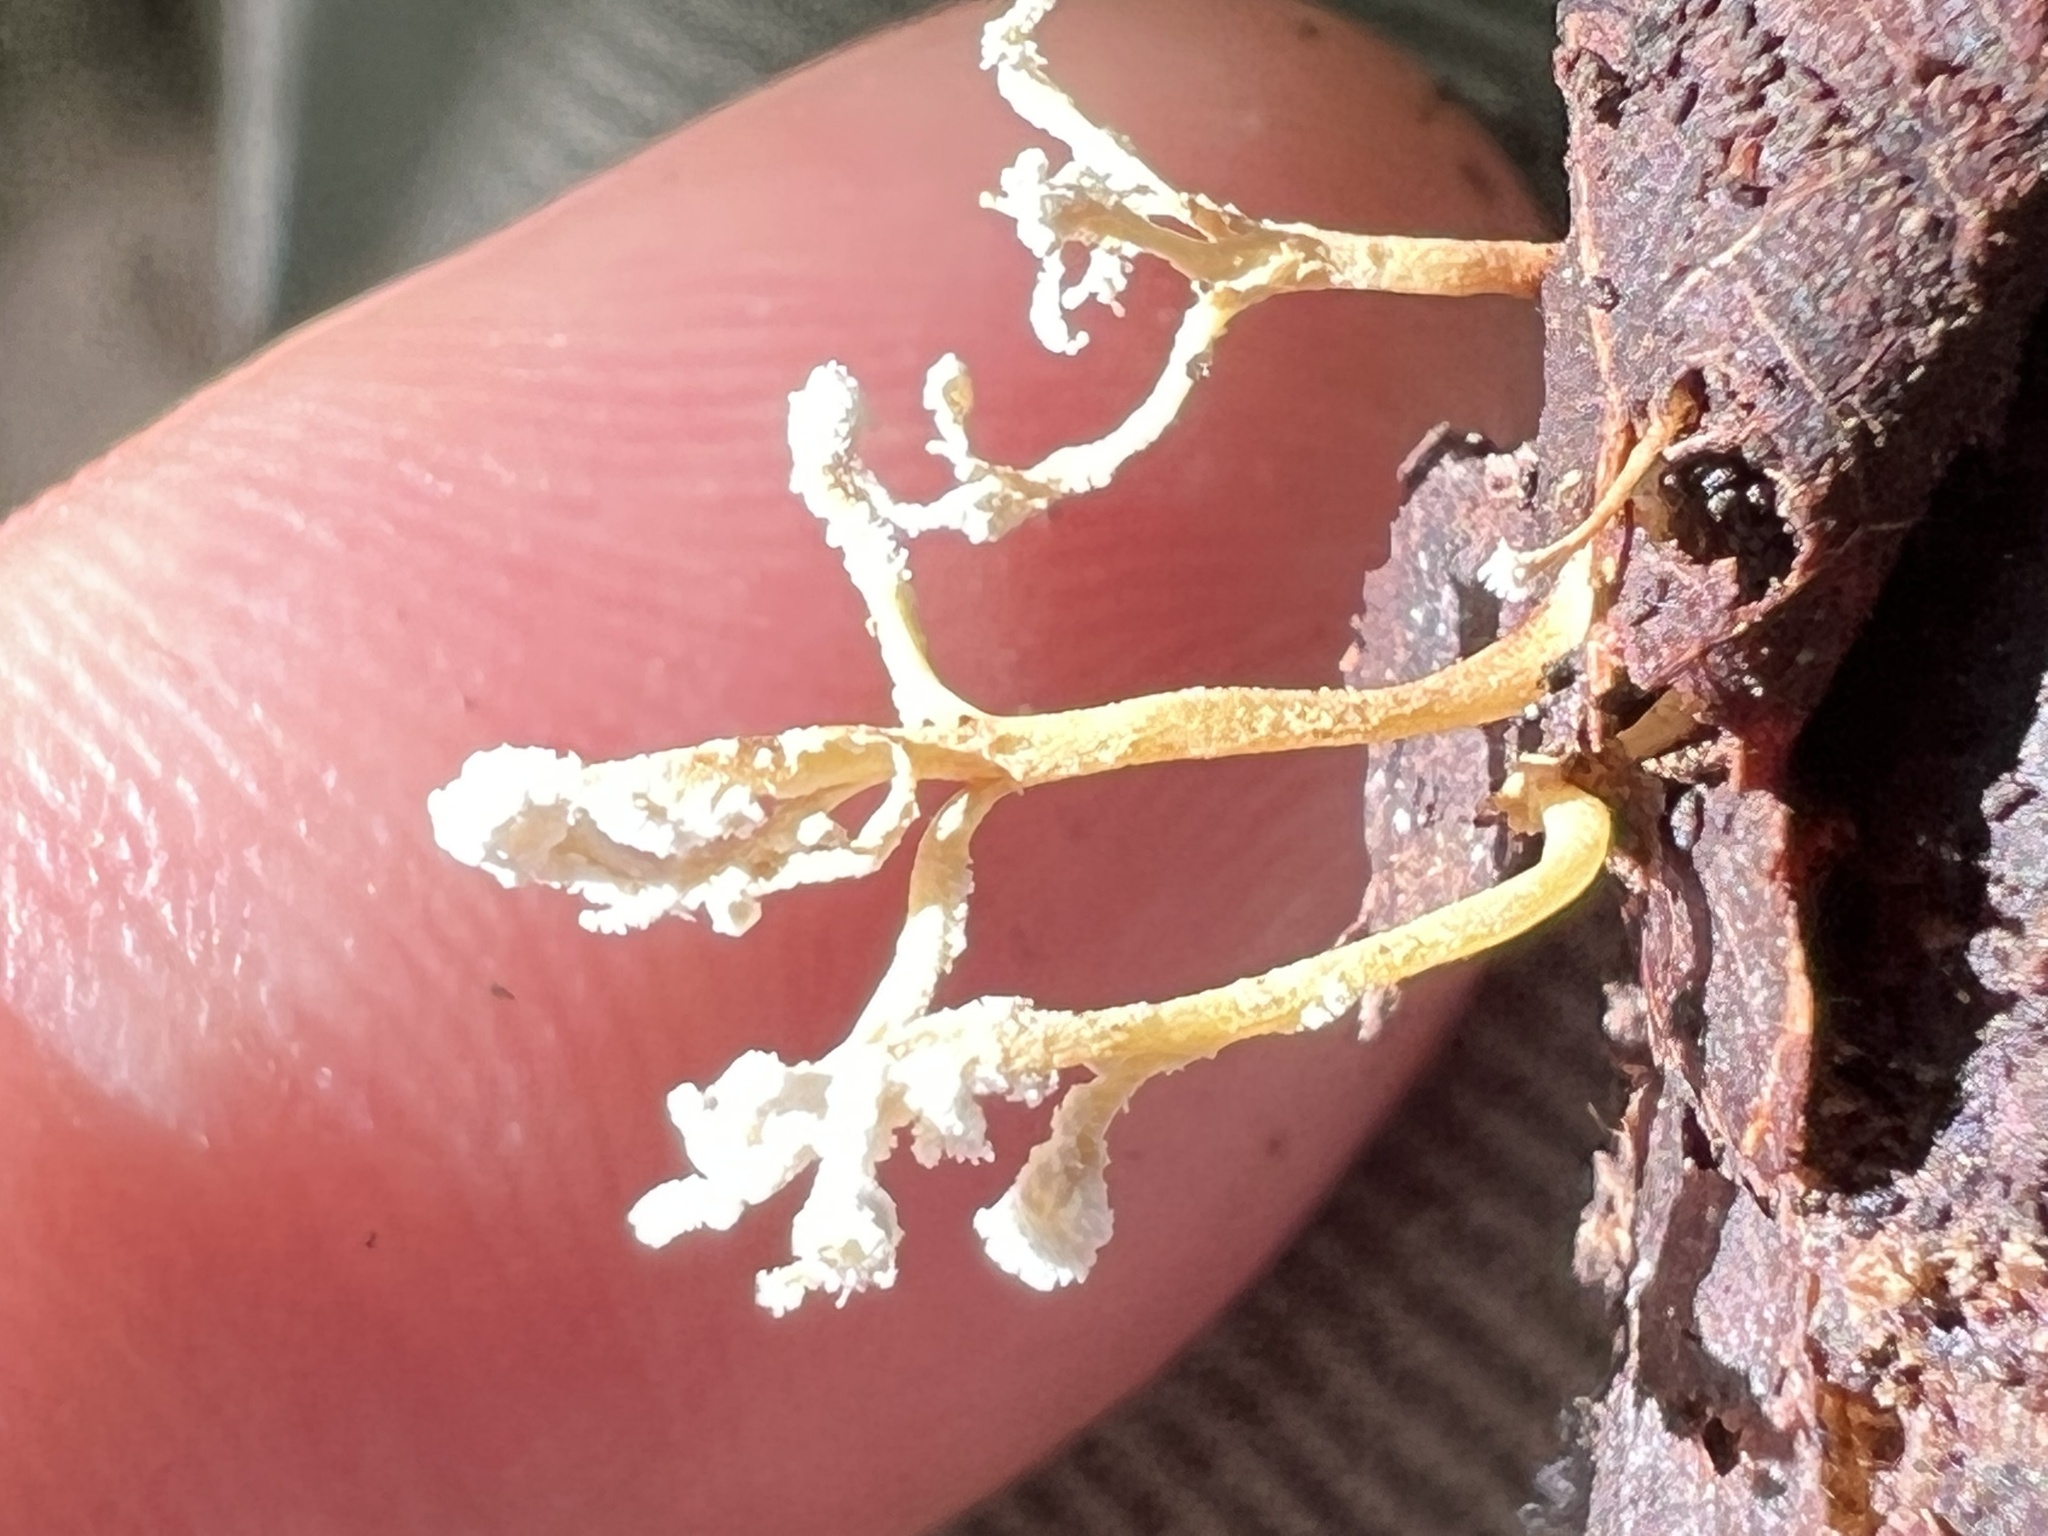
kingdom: Fungi
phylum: Ascomycota
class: Sordariomycetes
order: Hypocreales
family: Cordycipitaceae
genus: Cordyceps
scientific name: Cordyceps tenuipes
